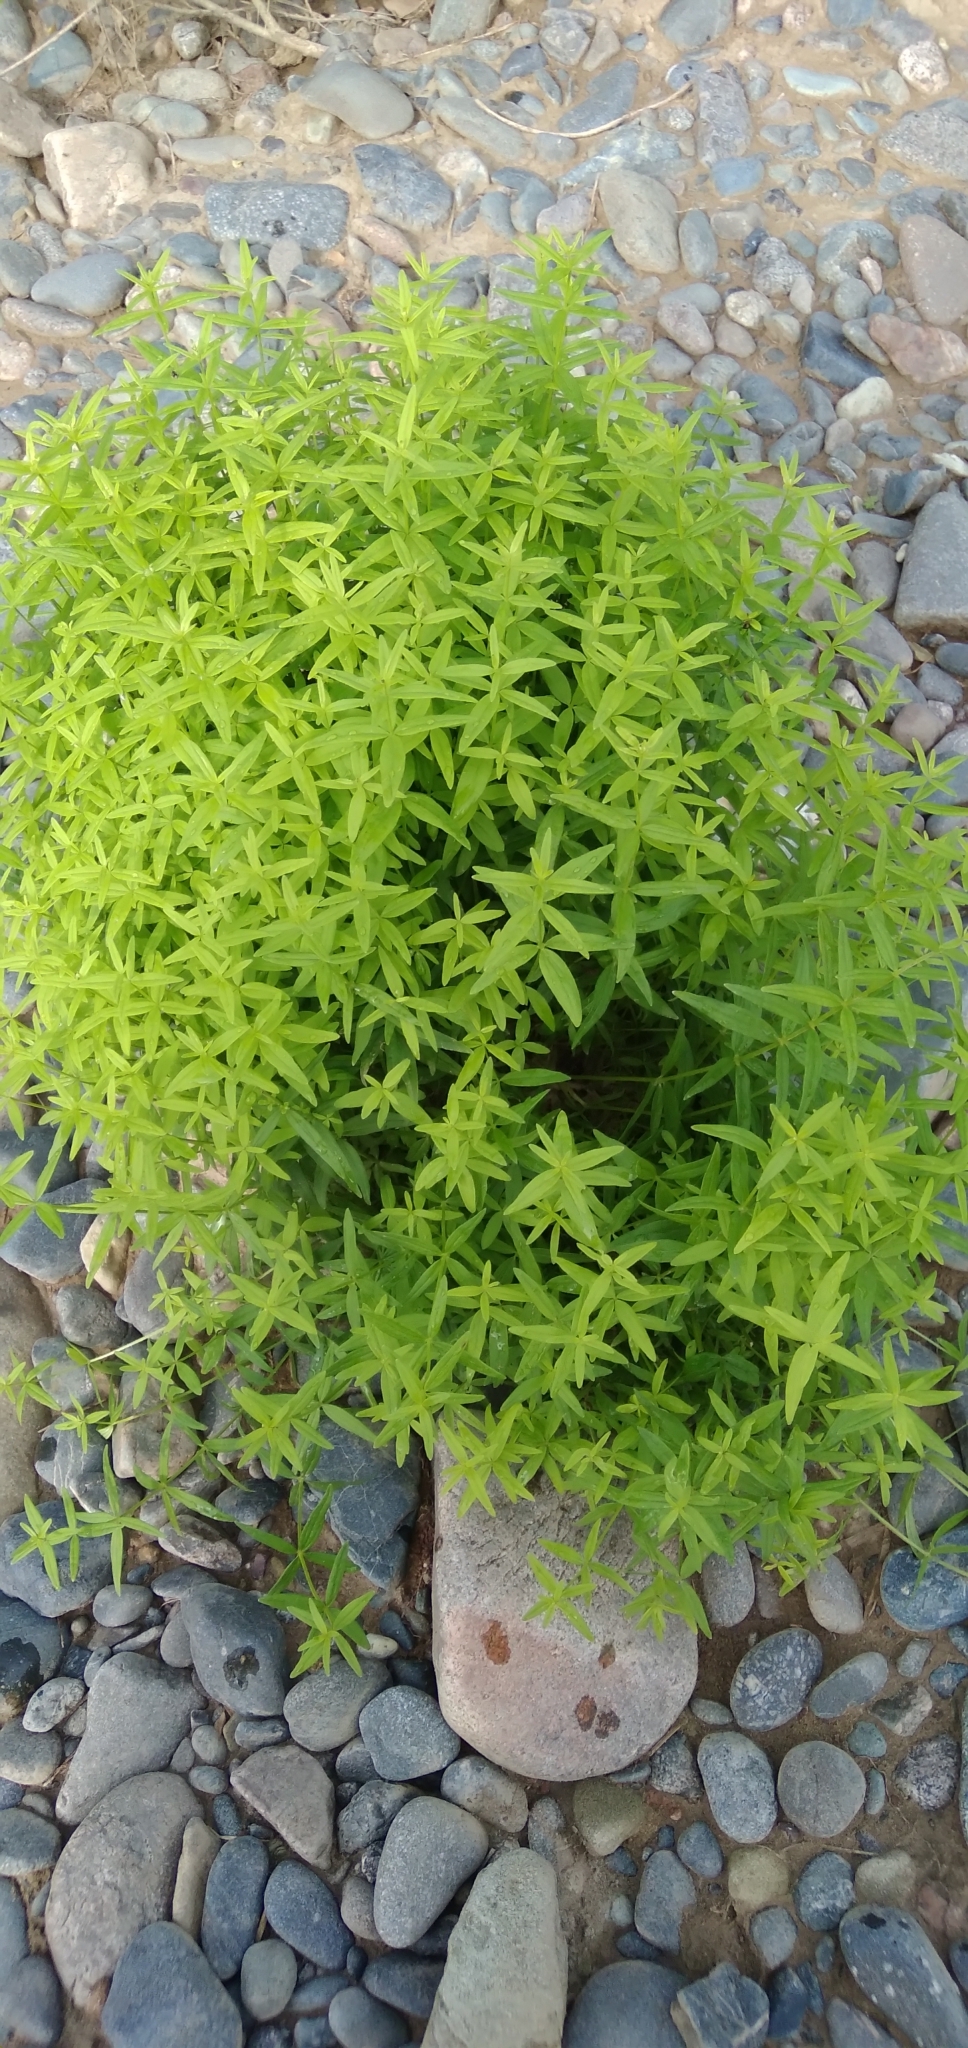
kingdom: Plantae
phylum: Tracheophyta
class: Magnoliopsida
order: Gentianales
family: Rubiaceae
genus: Galium
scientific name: Galium boreale
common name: Northern bedstraw
